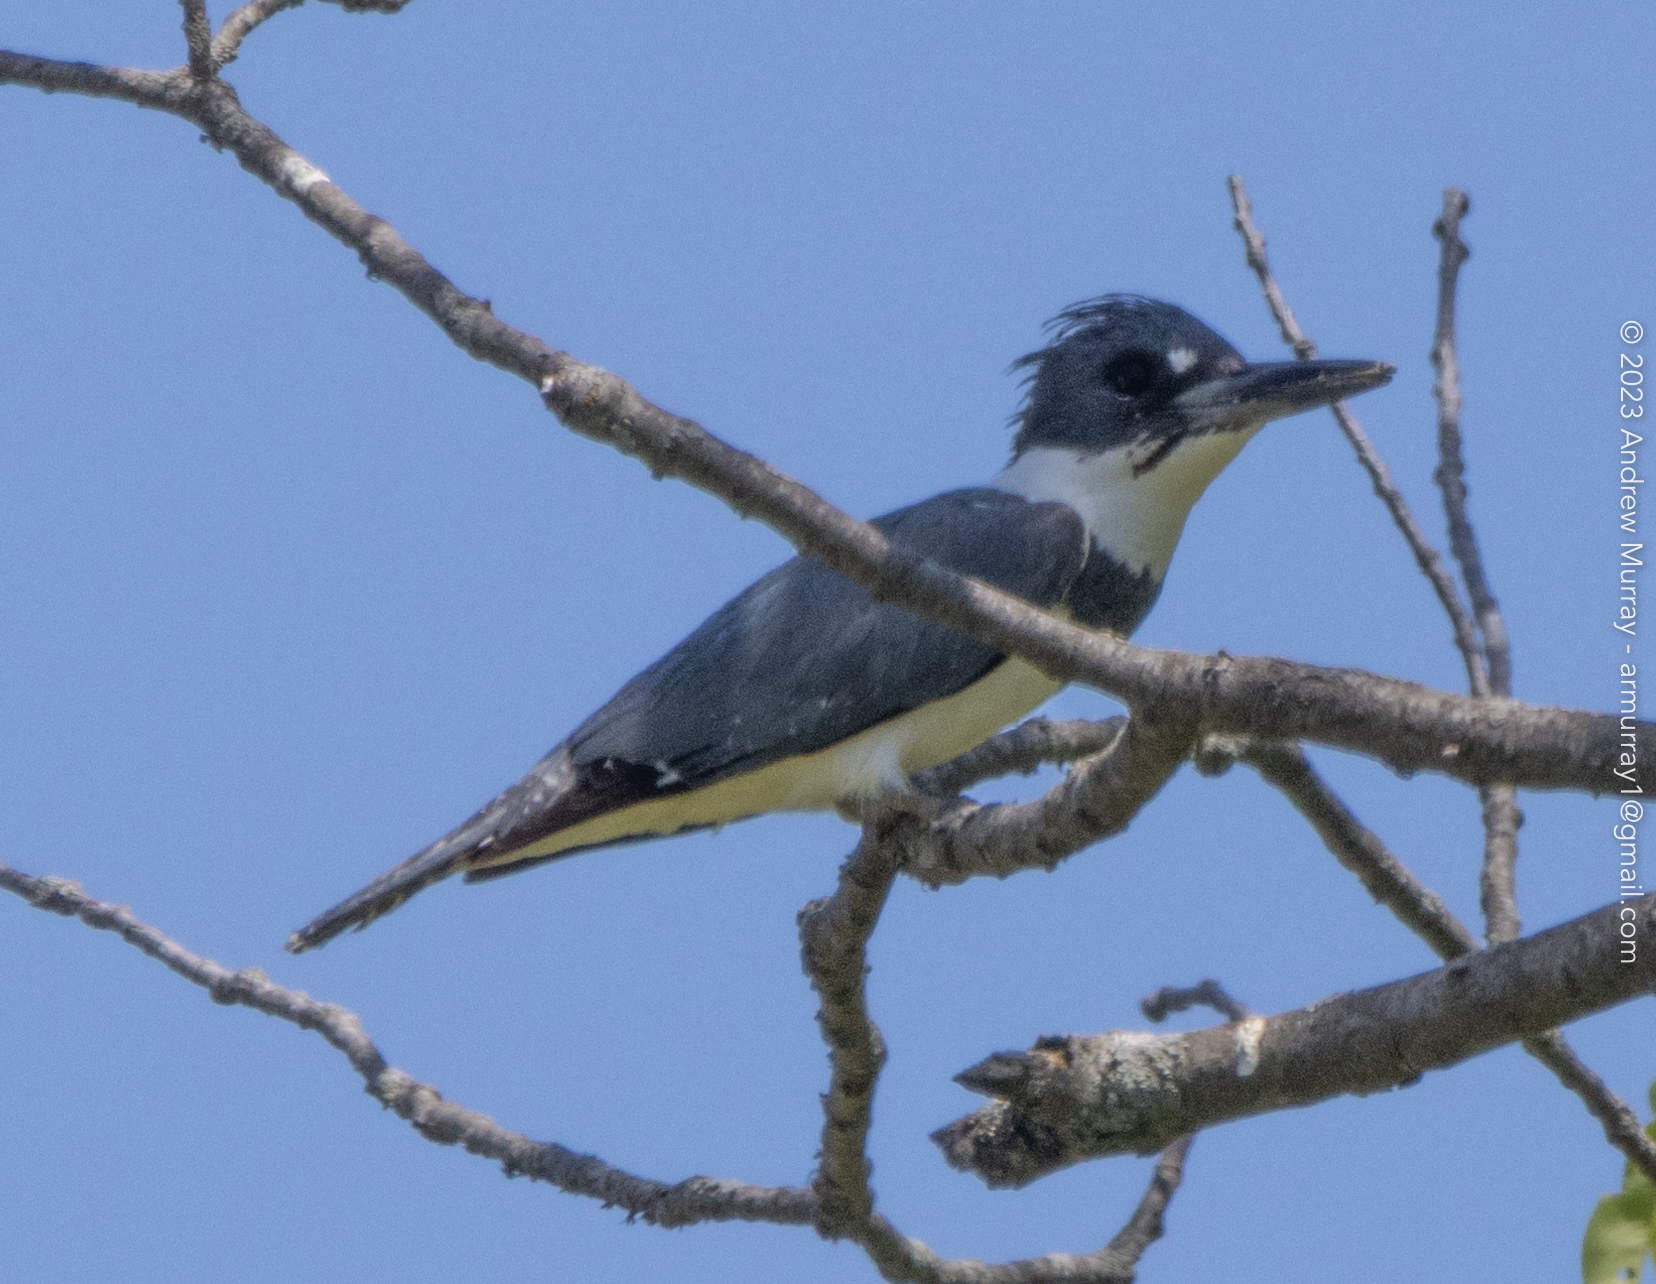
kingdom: Animalia
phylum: Chordata
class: Aves
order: Coraciiformes
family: Alcedinidae
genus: Megaceryle
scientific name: Megaceryle alcyon
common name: Belted kingfisher
